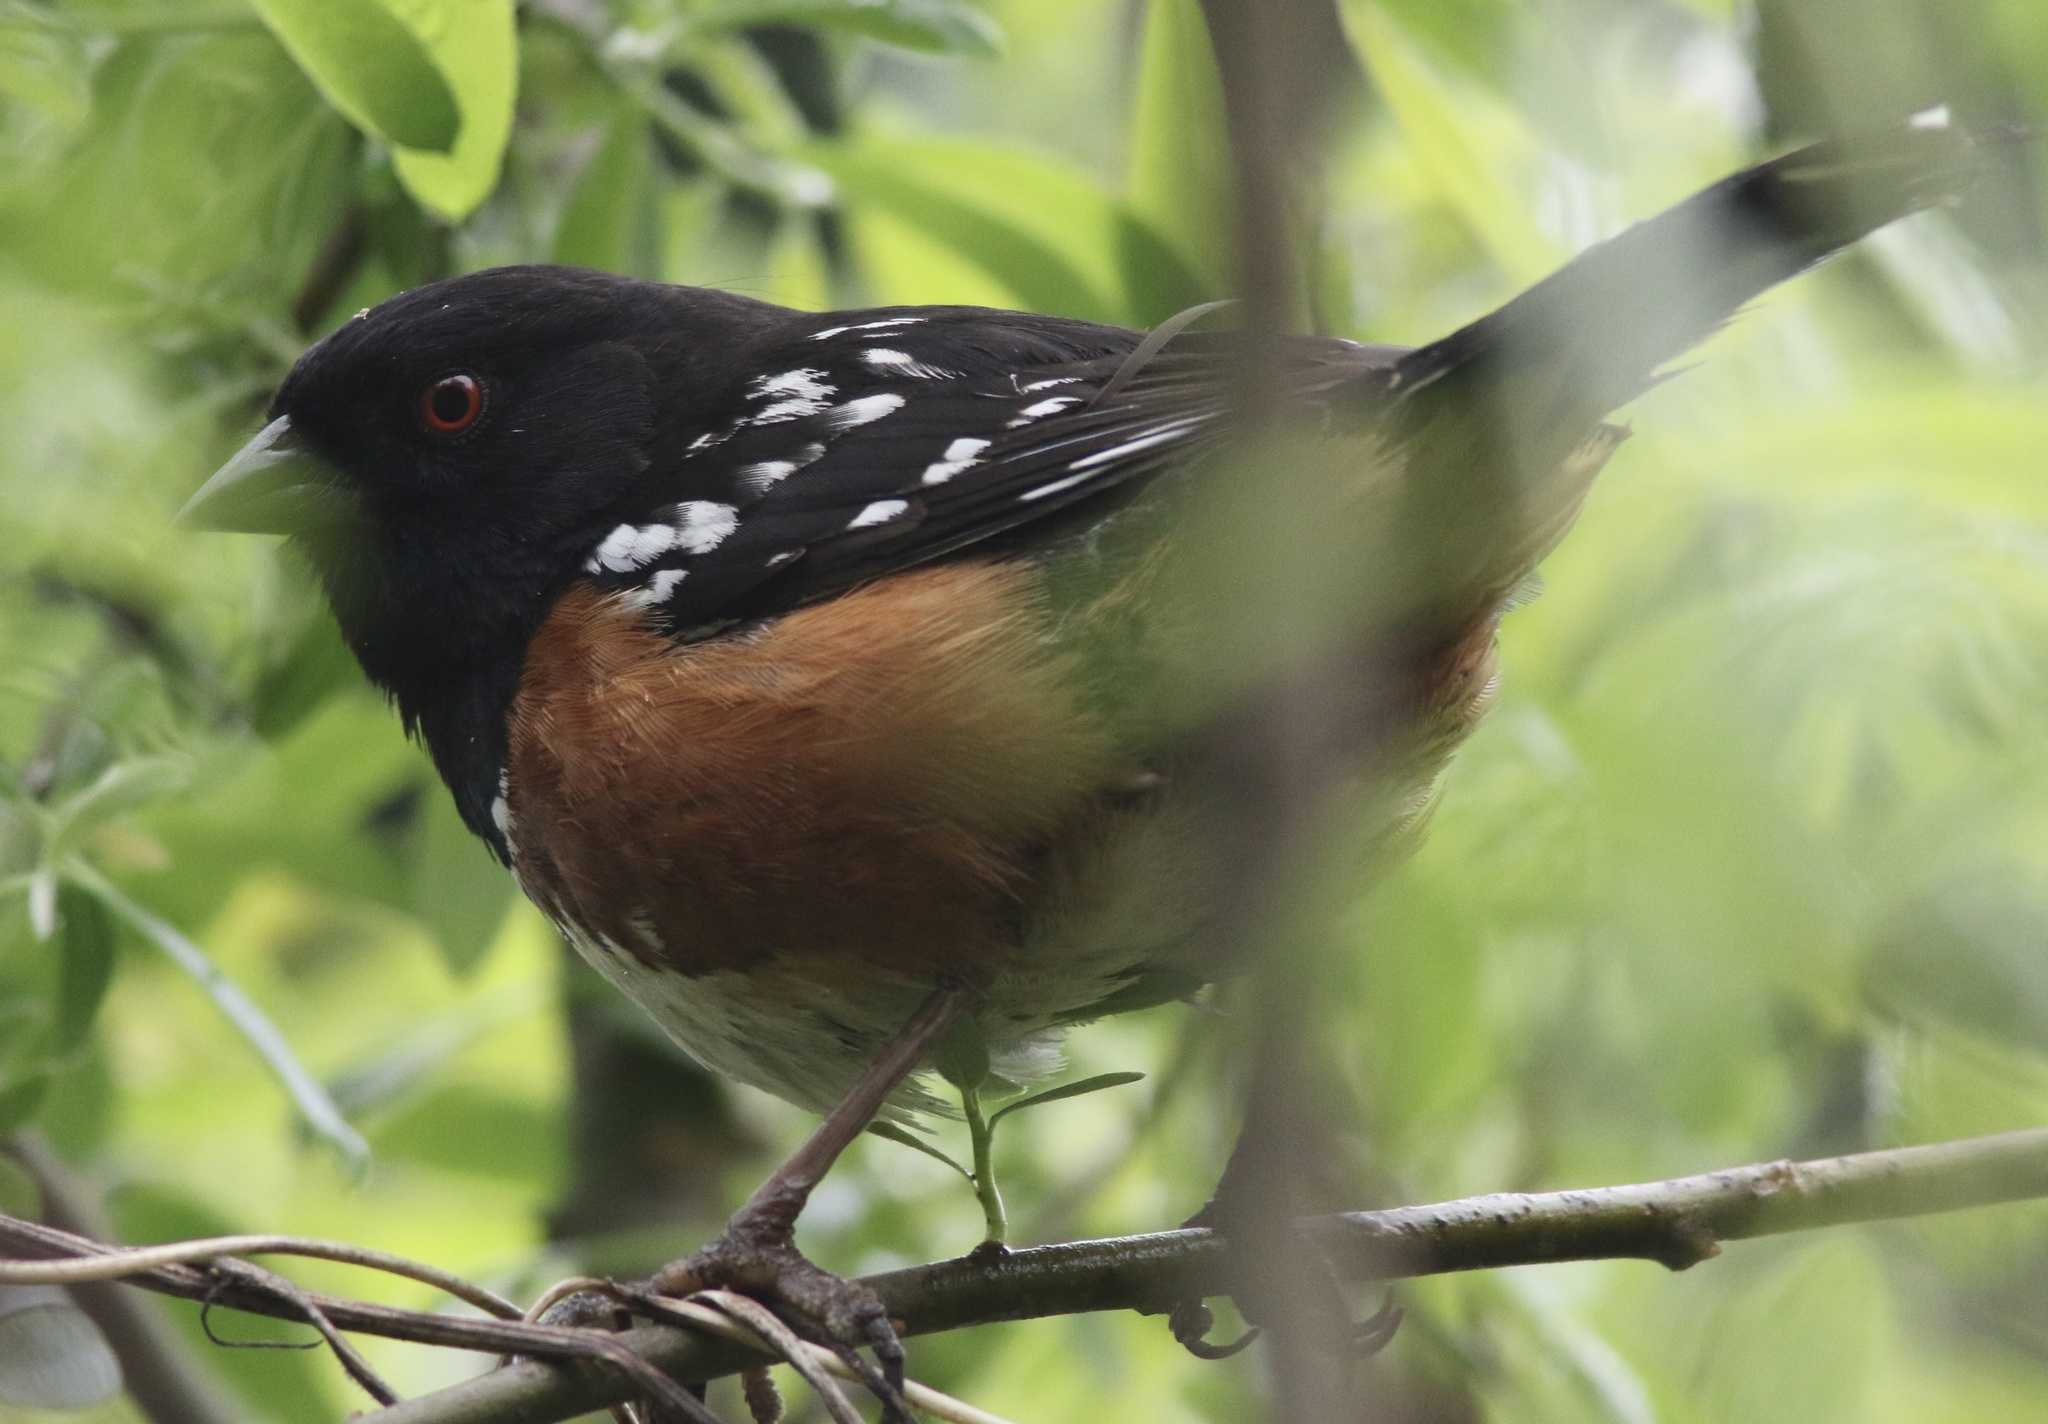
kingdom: Animalia
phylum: Chordata
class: Aves
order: Passeriformes
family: Passerellidae
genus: Pipilo
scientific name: Pipilo maculatus
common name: Spotted towhee
